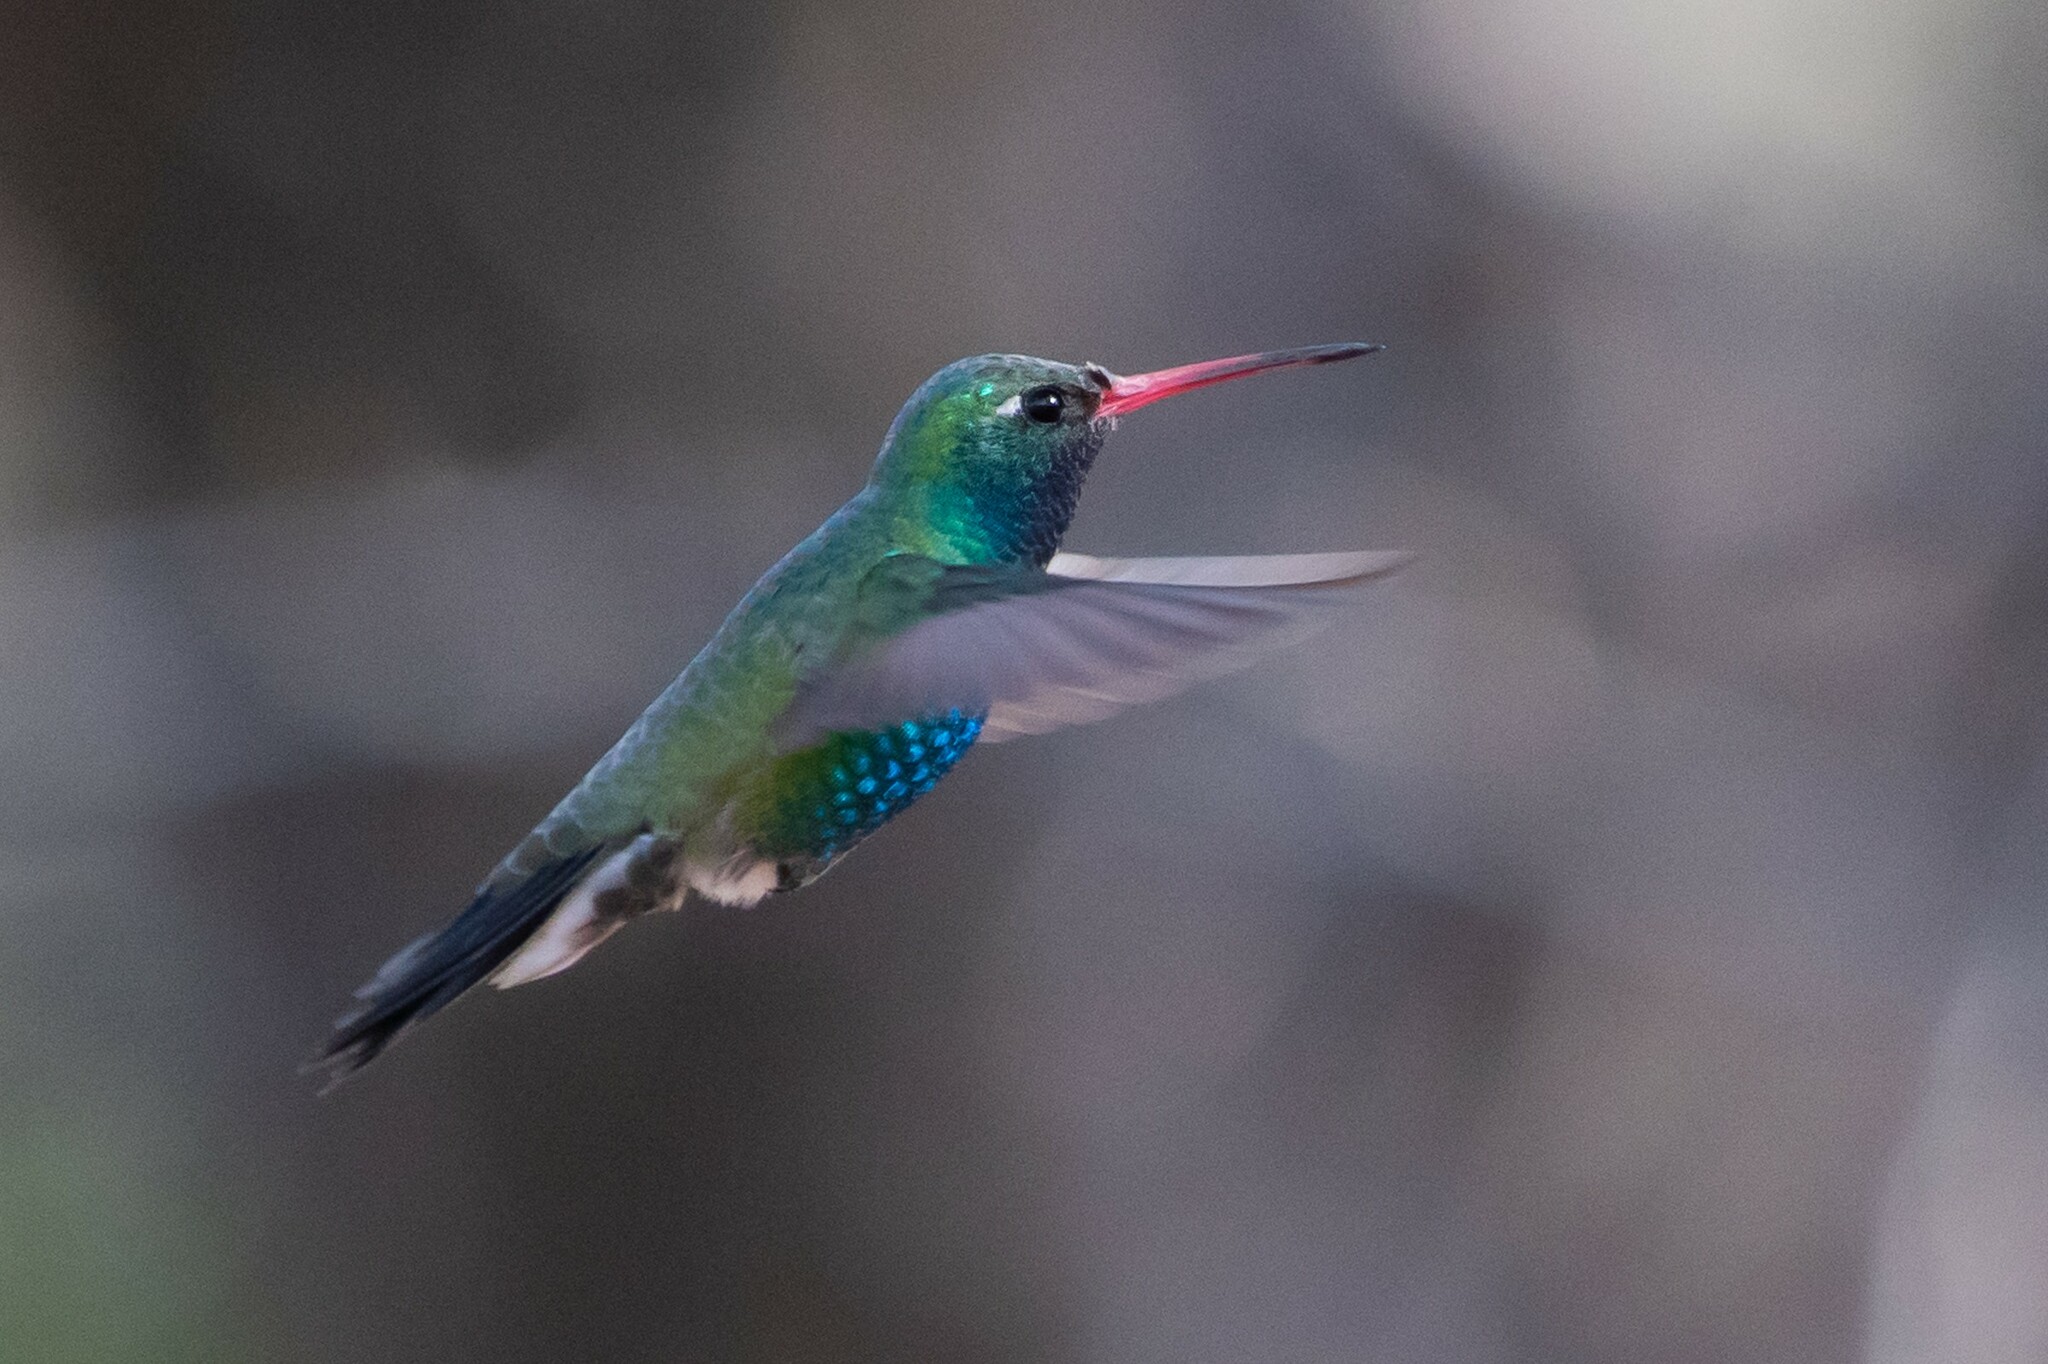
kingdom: Animalia
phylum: Chordata
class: Aves
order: Apodiformes
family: Trochilidae
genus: Cynanthus
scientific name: Cynanthus latirostris
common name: Broad-billed hummingbird
